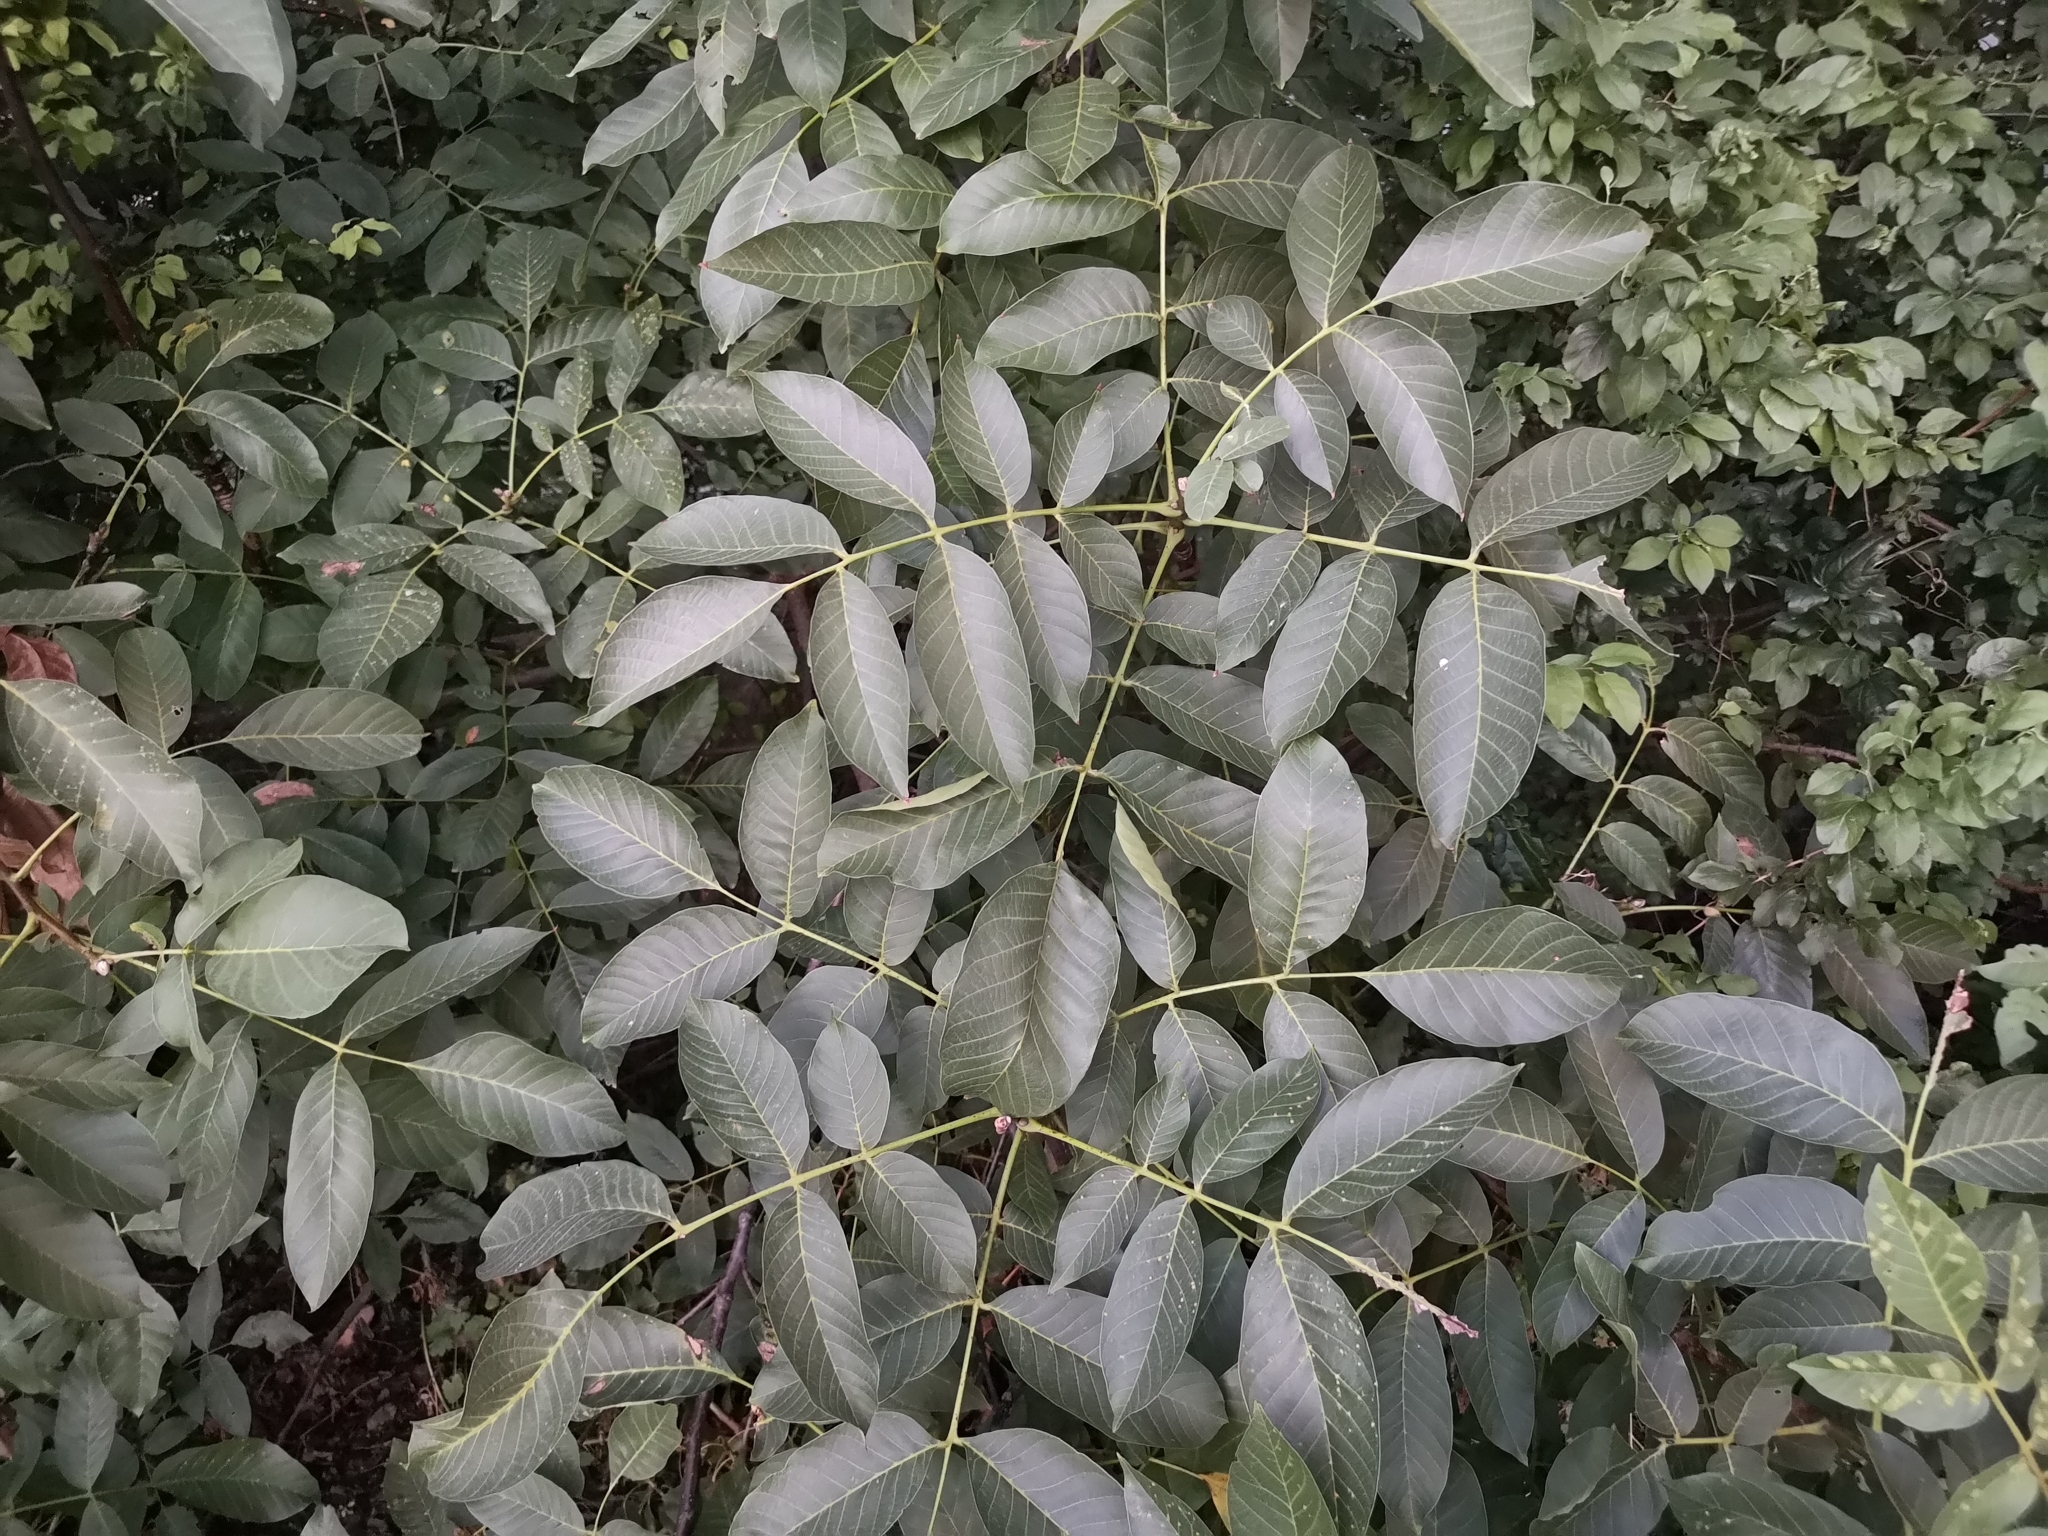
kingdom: Plantae
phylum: Tracheophyta
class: Magnoliopsida
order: Fagales
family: Juglandaceae
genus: Juglans
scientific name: Juglans regia
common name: Walnut
